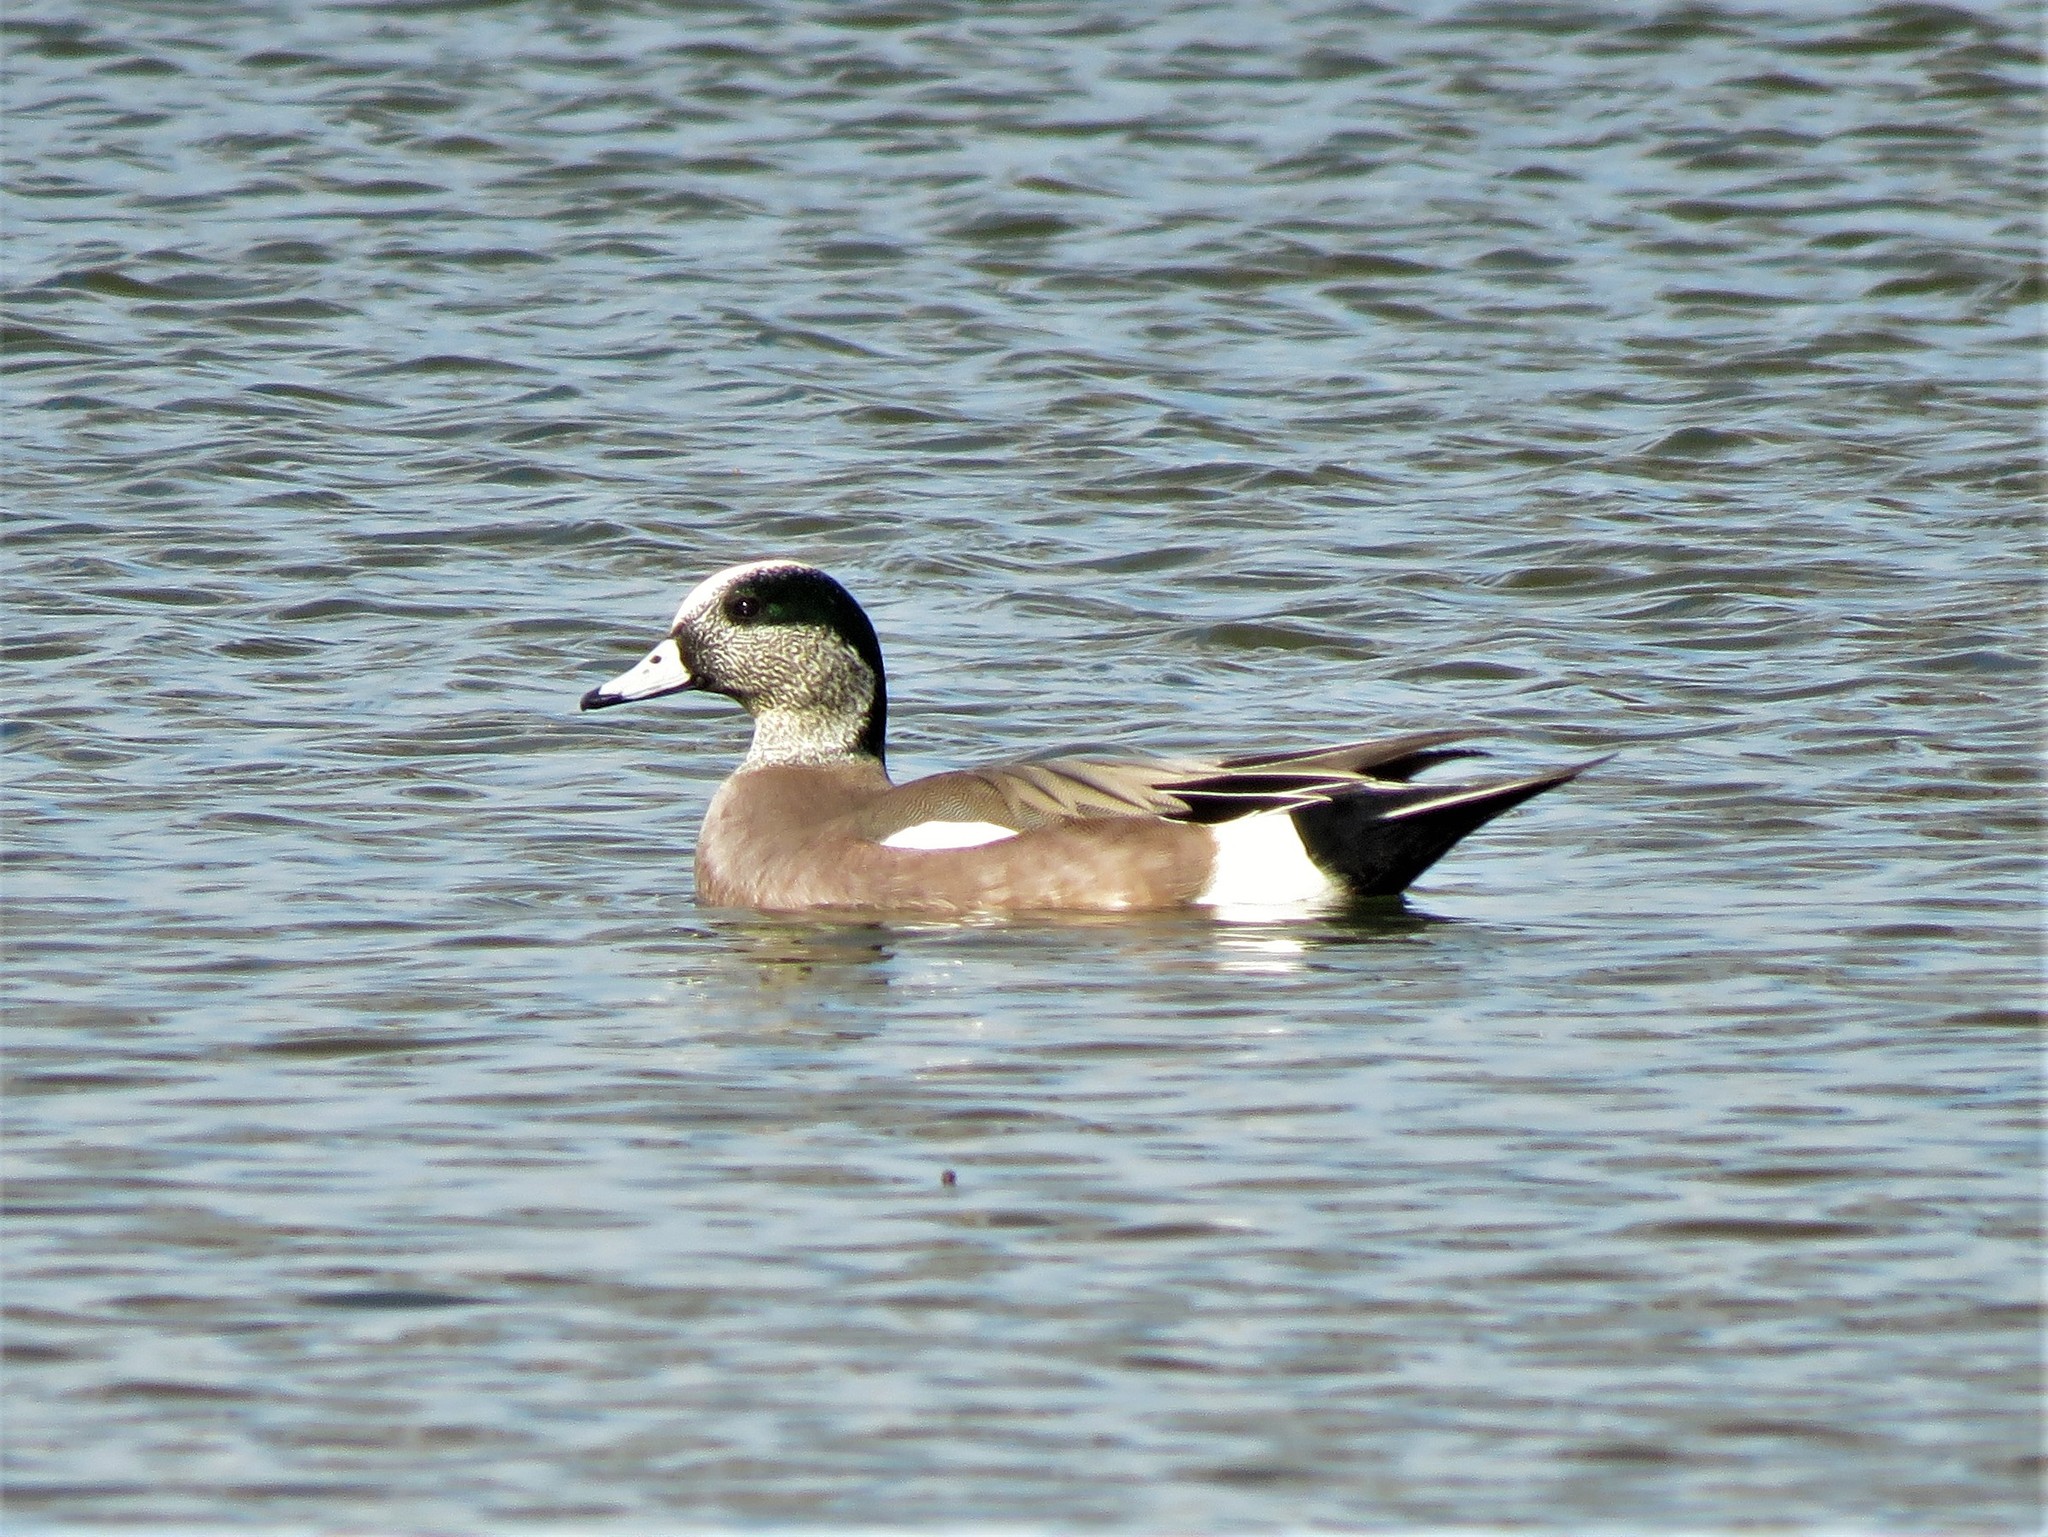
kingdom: Animalia
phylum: Chordata
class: Aves
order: Anseriformes
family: Anatidae
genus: Mareca
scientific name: Mareca americana
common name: American wigeon
